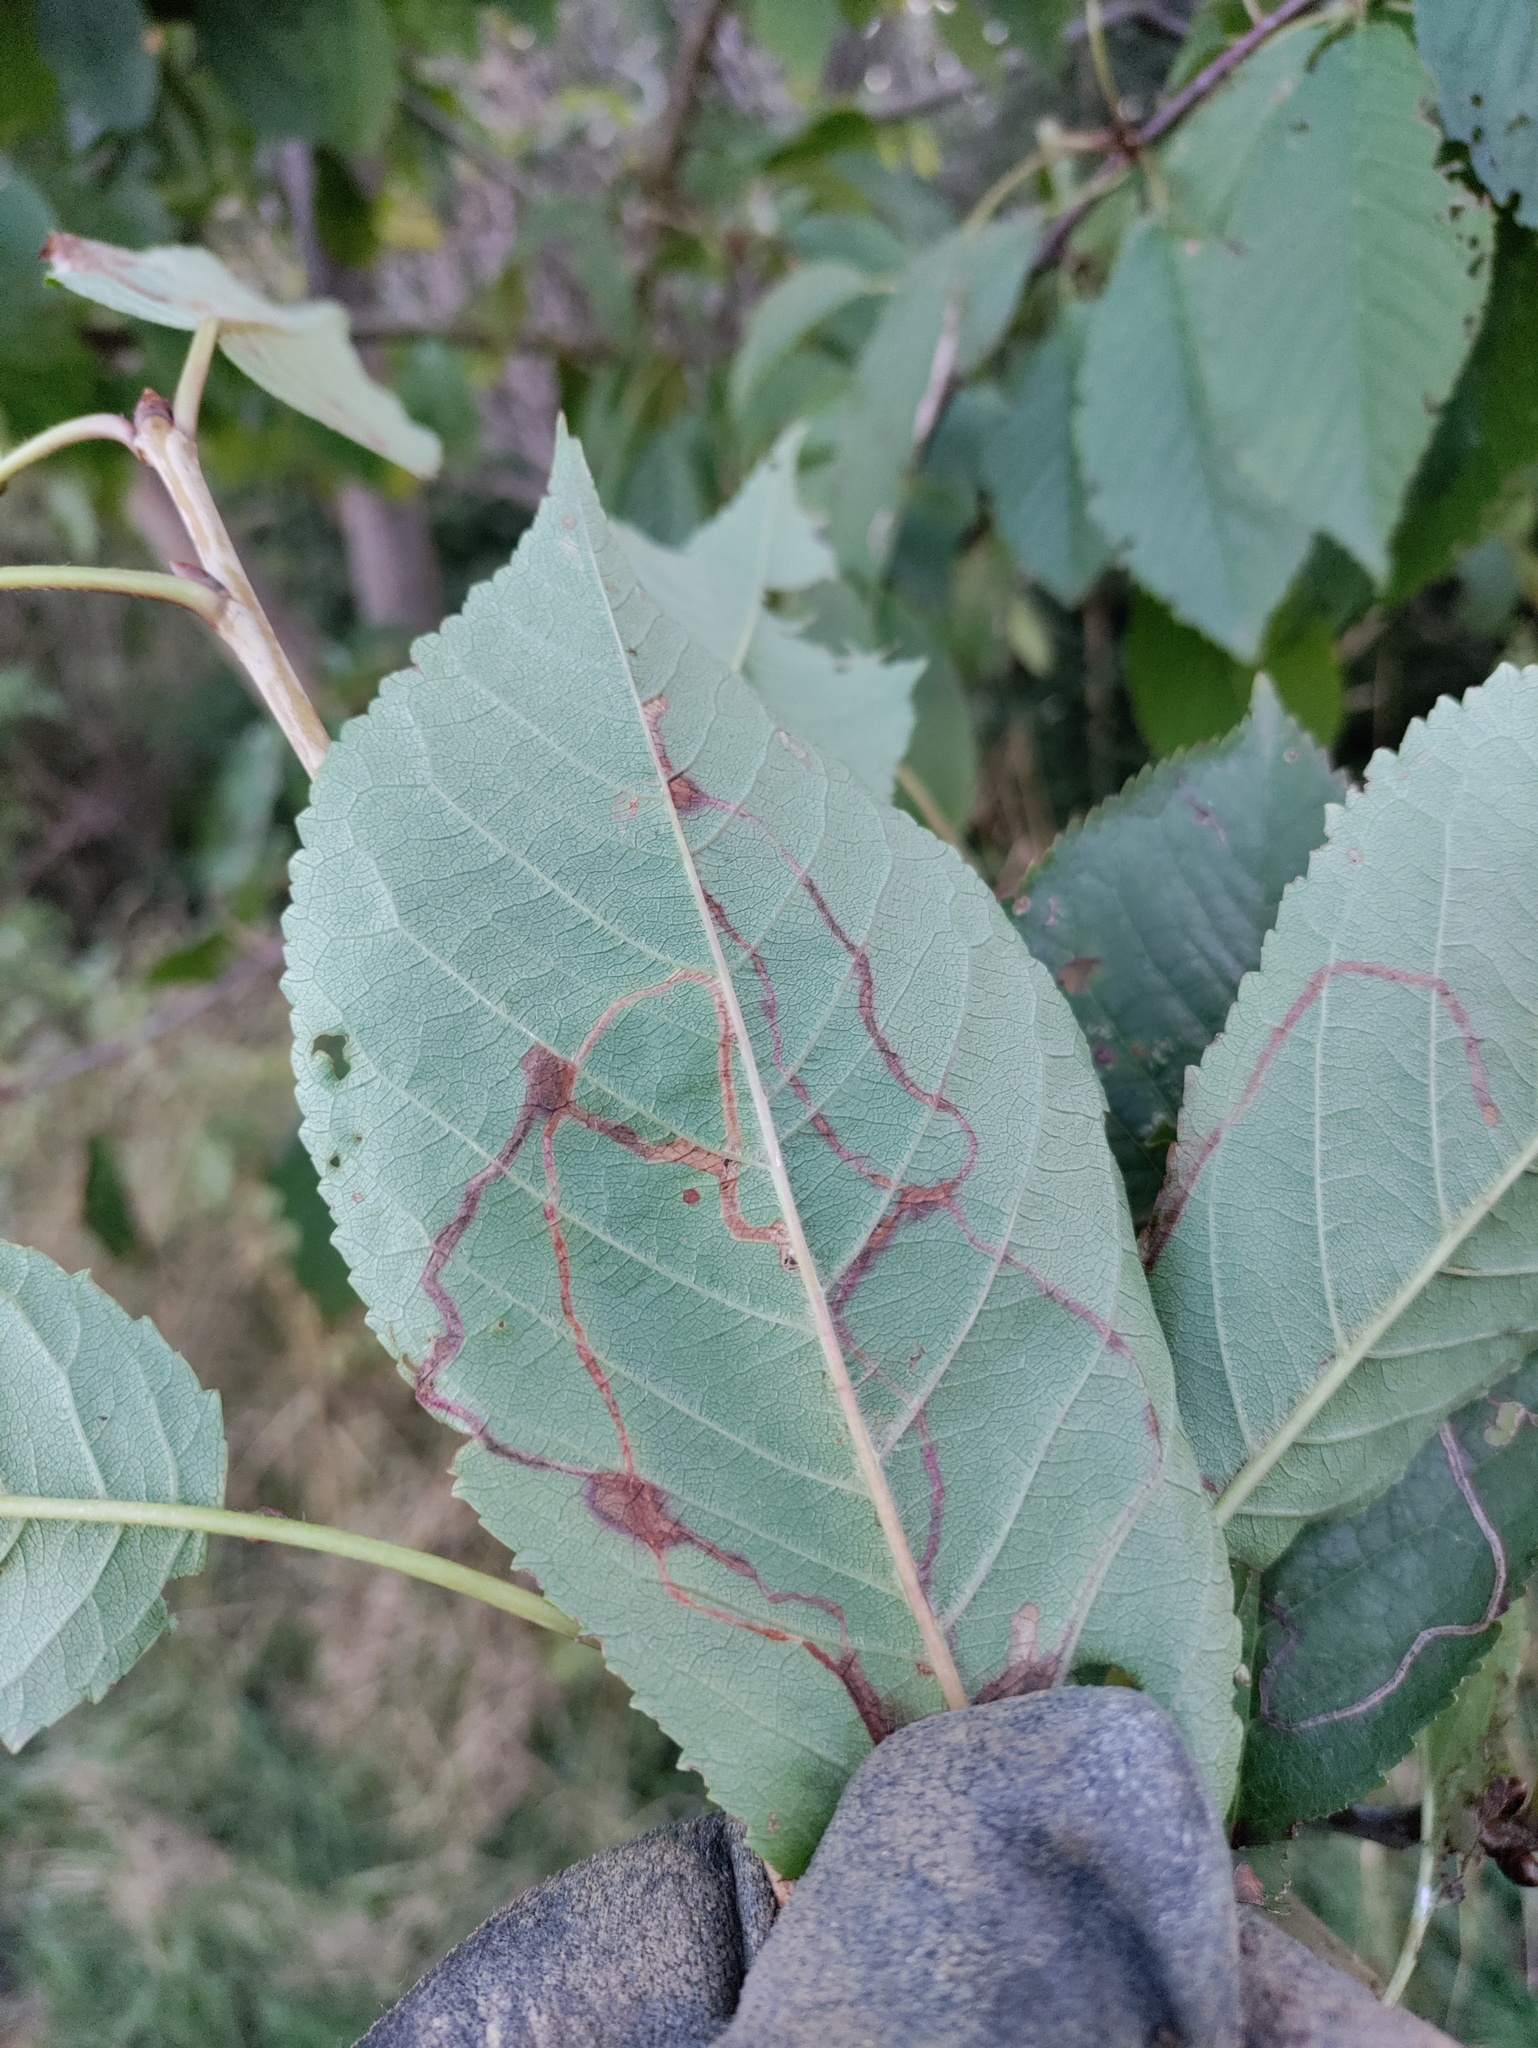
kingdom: Animalia
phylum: Arthropoda
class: Insecta
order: Lepidoptera
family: Lyonetiidae
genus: Lyonetia
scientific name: Lyonetia clerkella
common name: Apple leaf miner
